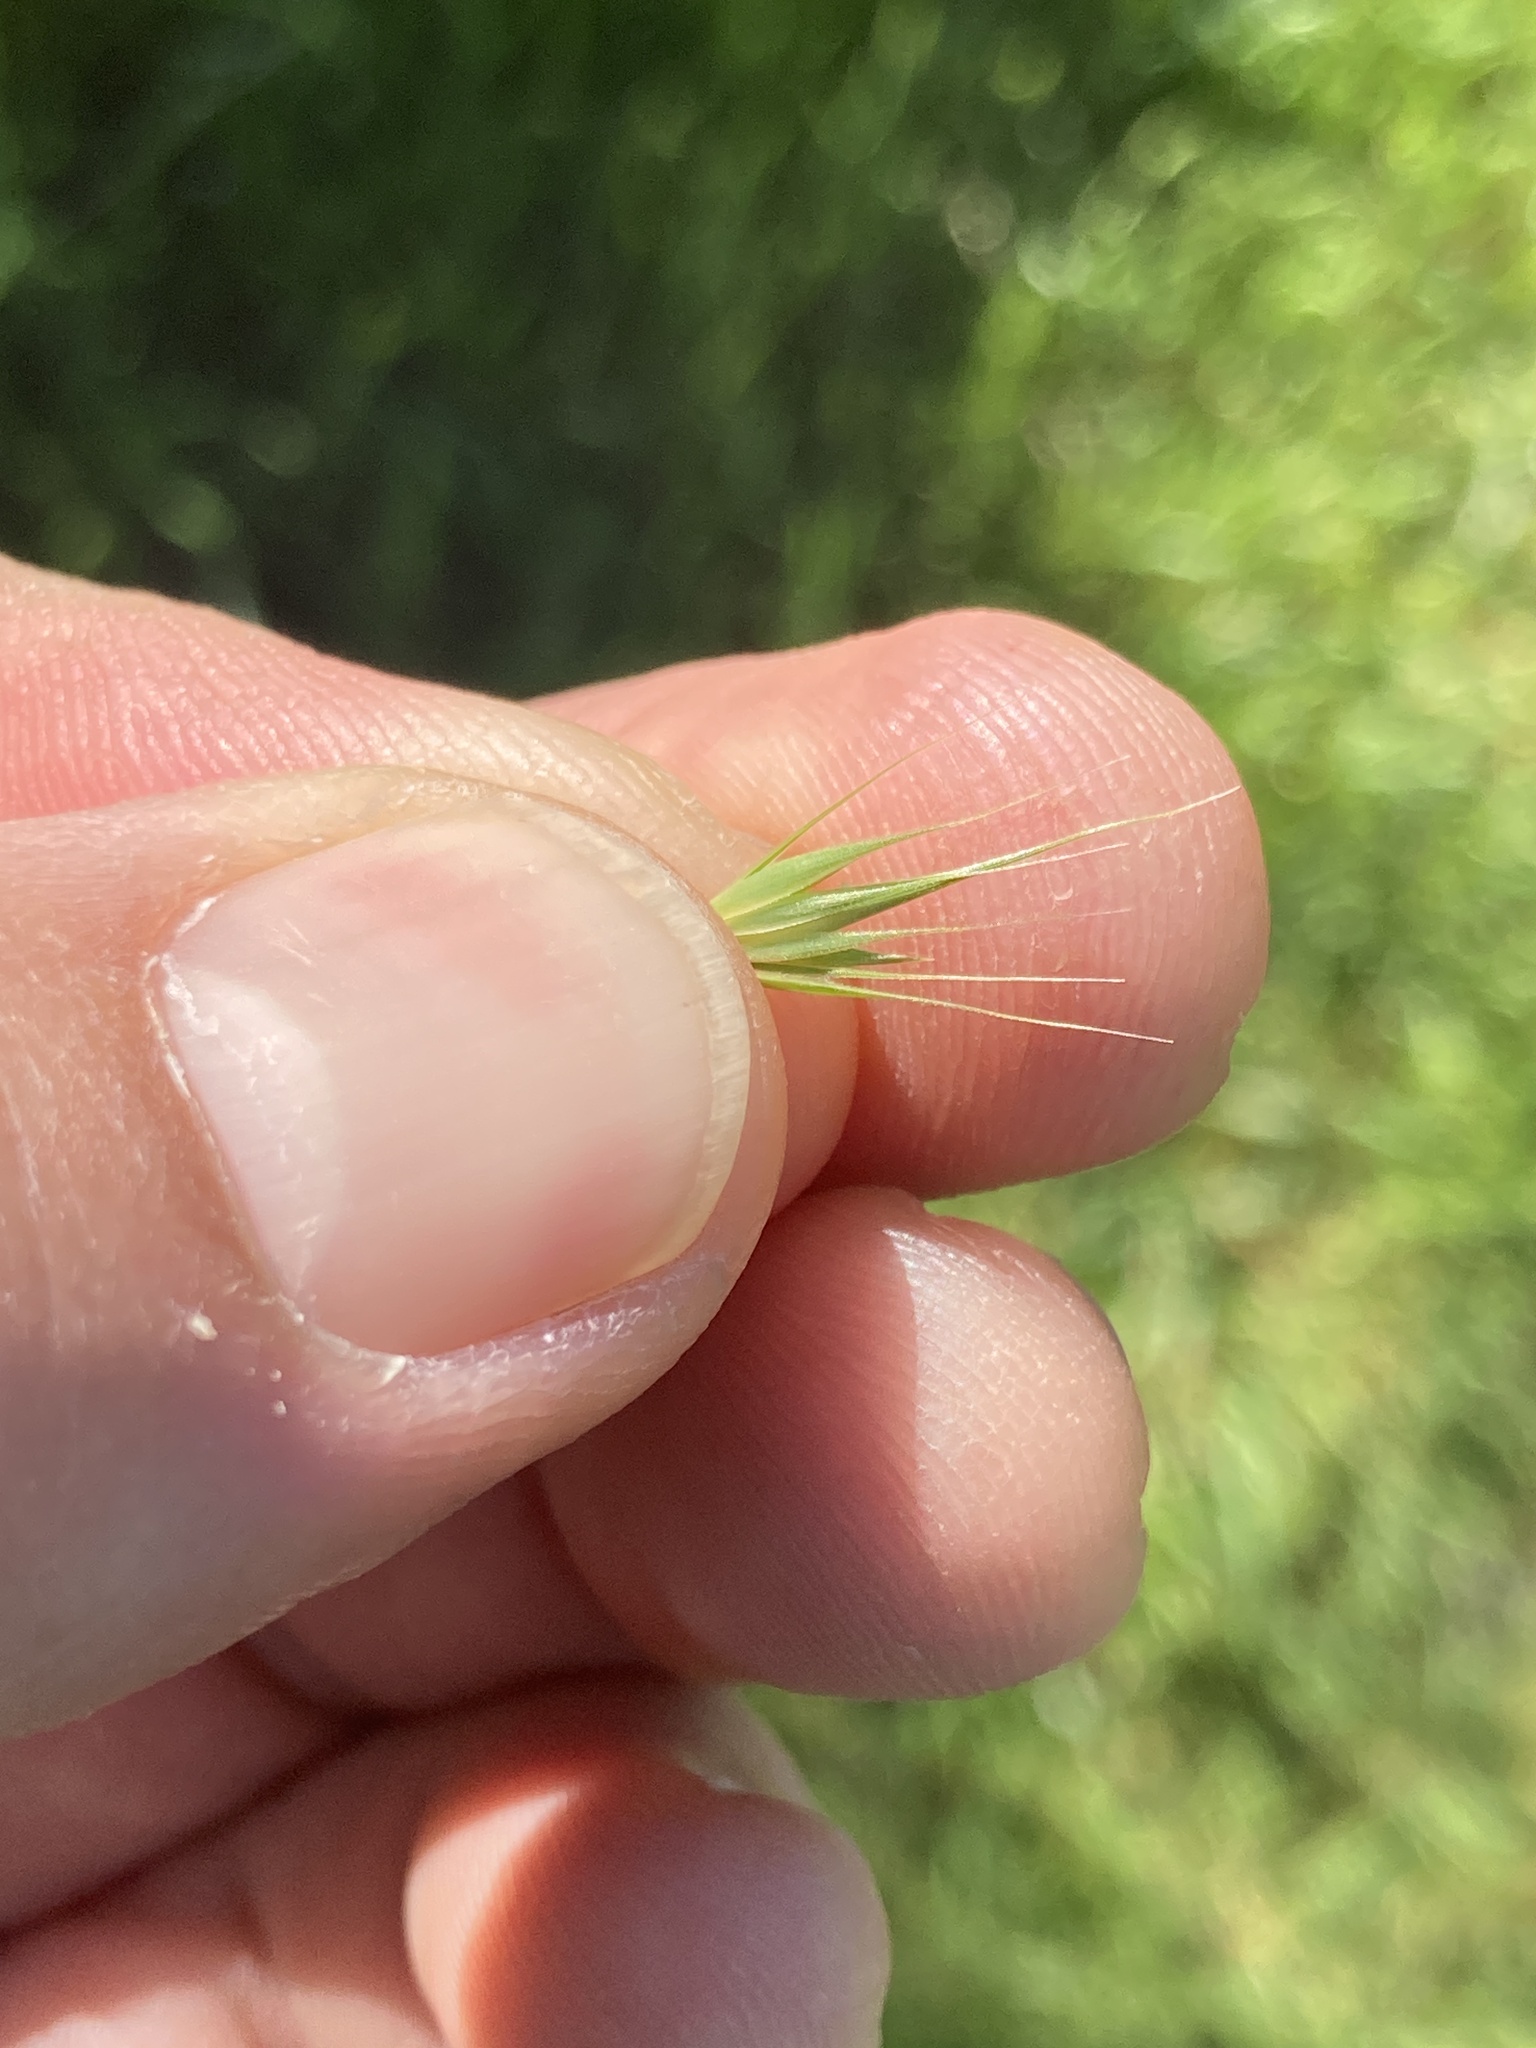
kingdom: Plantae
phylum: Tracheophyta
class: Liliopsida
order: Poales
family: Poaceae
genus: Hordeum
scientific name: Hordeum pusillum
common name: Little barley
